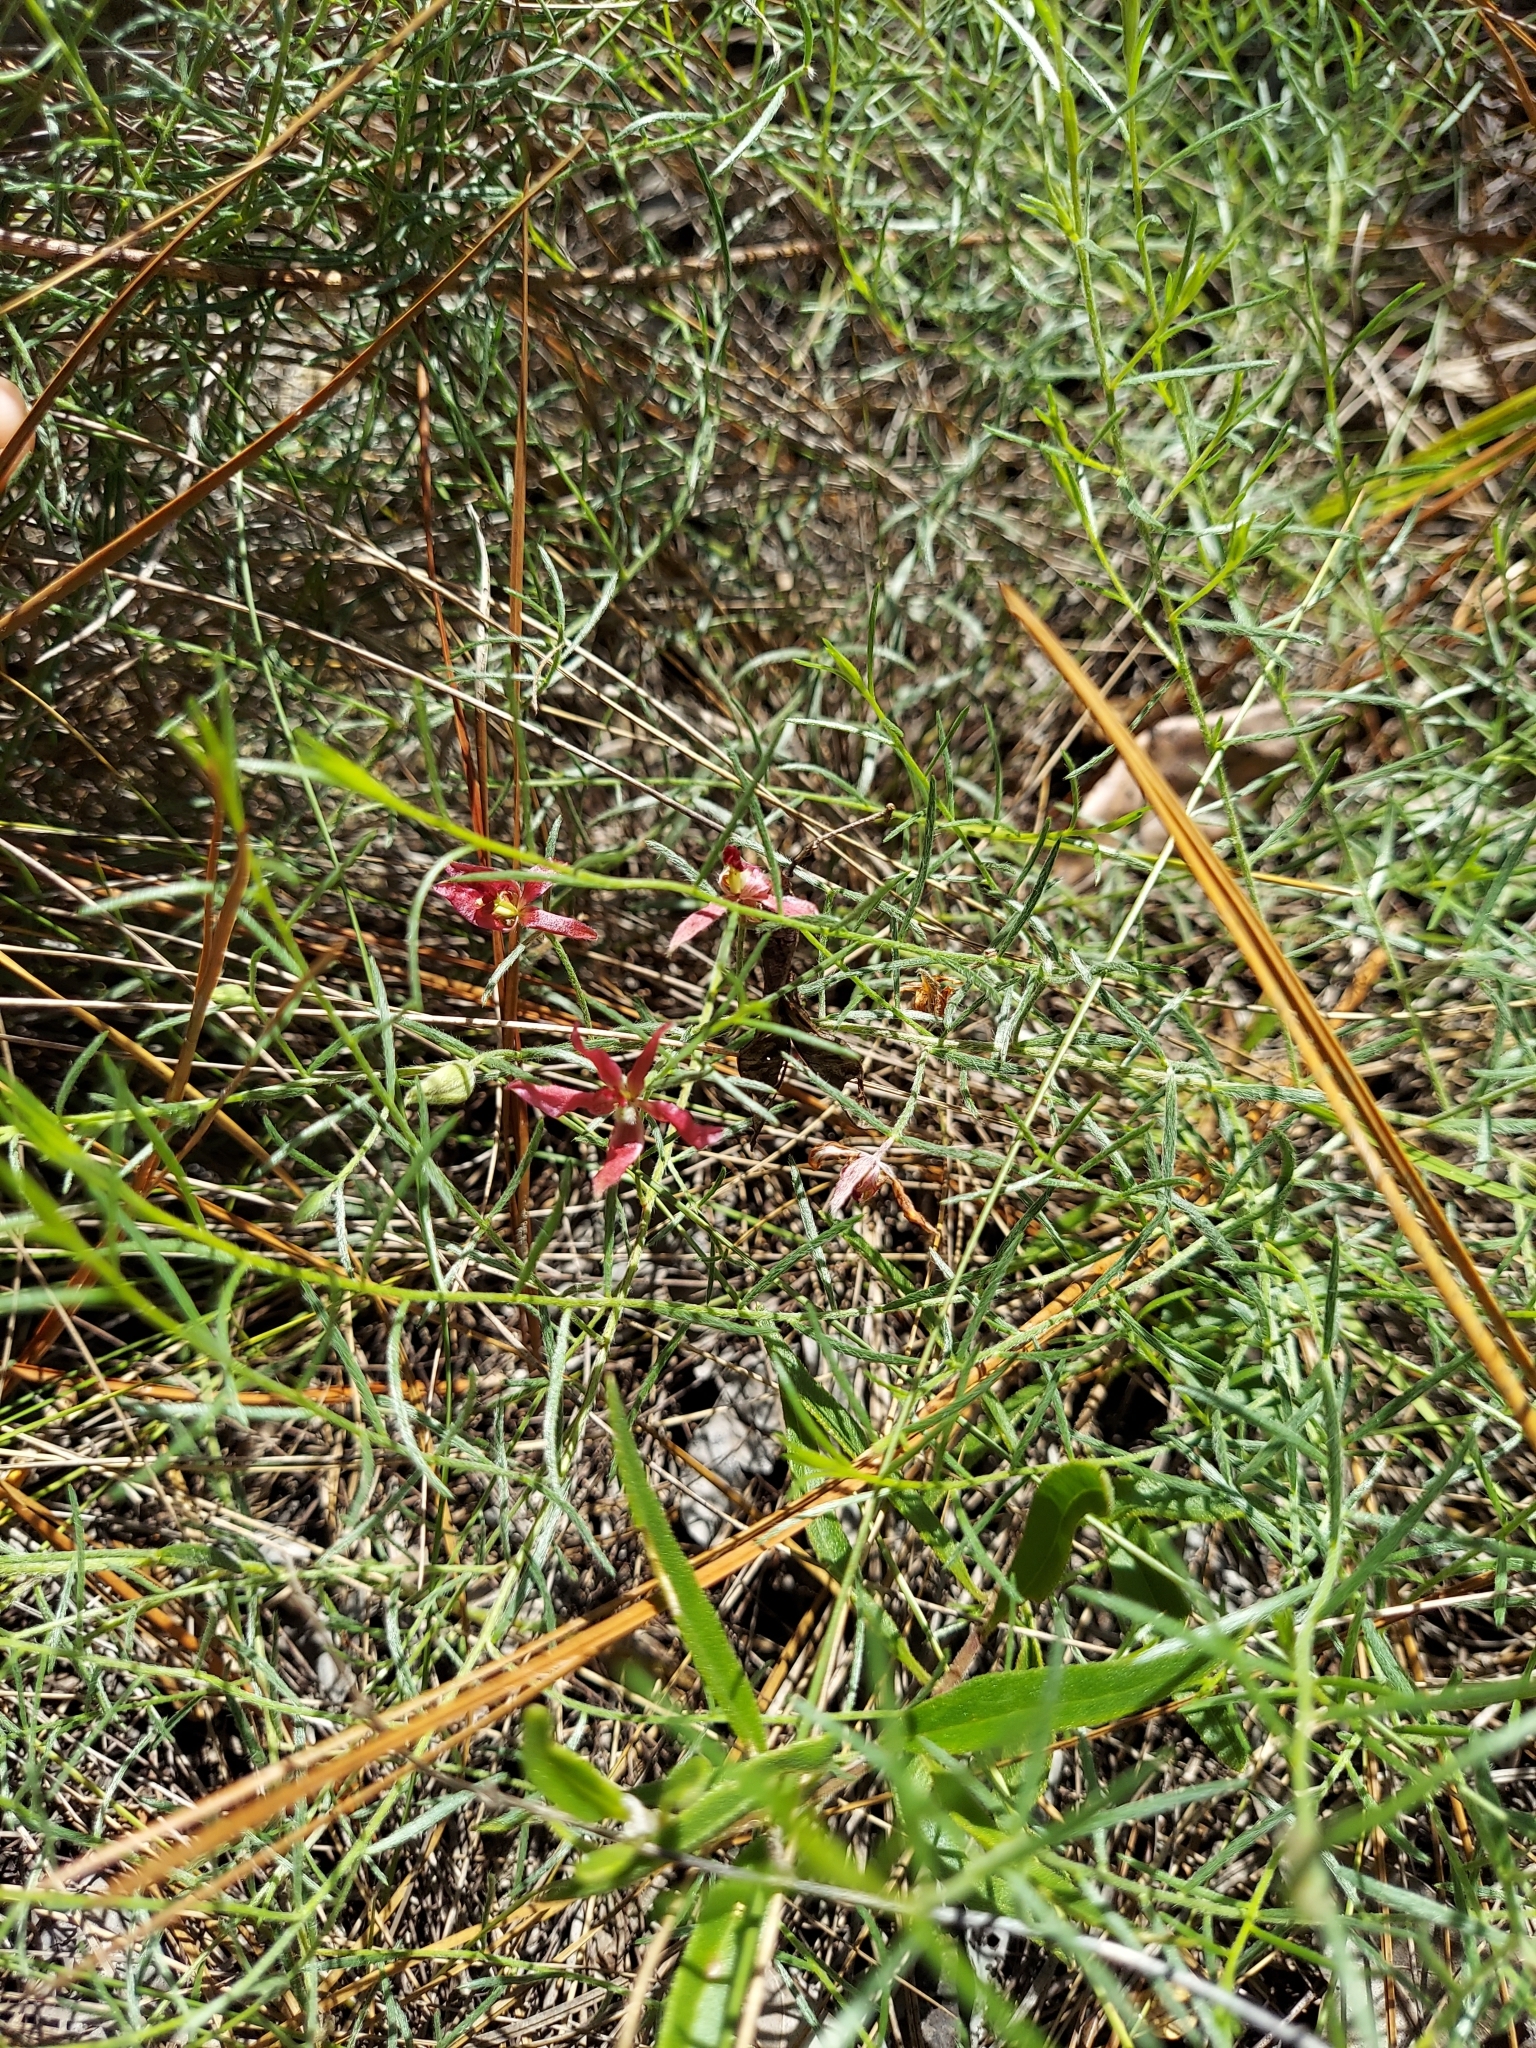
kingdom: Plantae
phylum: Tracheophyta
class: Magnoliopsida
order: Zygophyllales
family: Krameriaceae
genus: Krameria
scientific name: Krameria lanceolata
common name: Ratany
